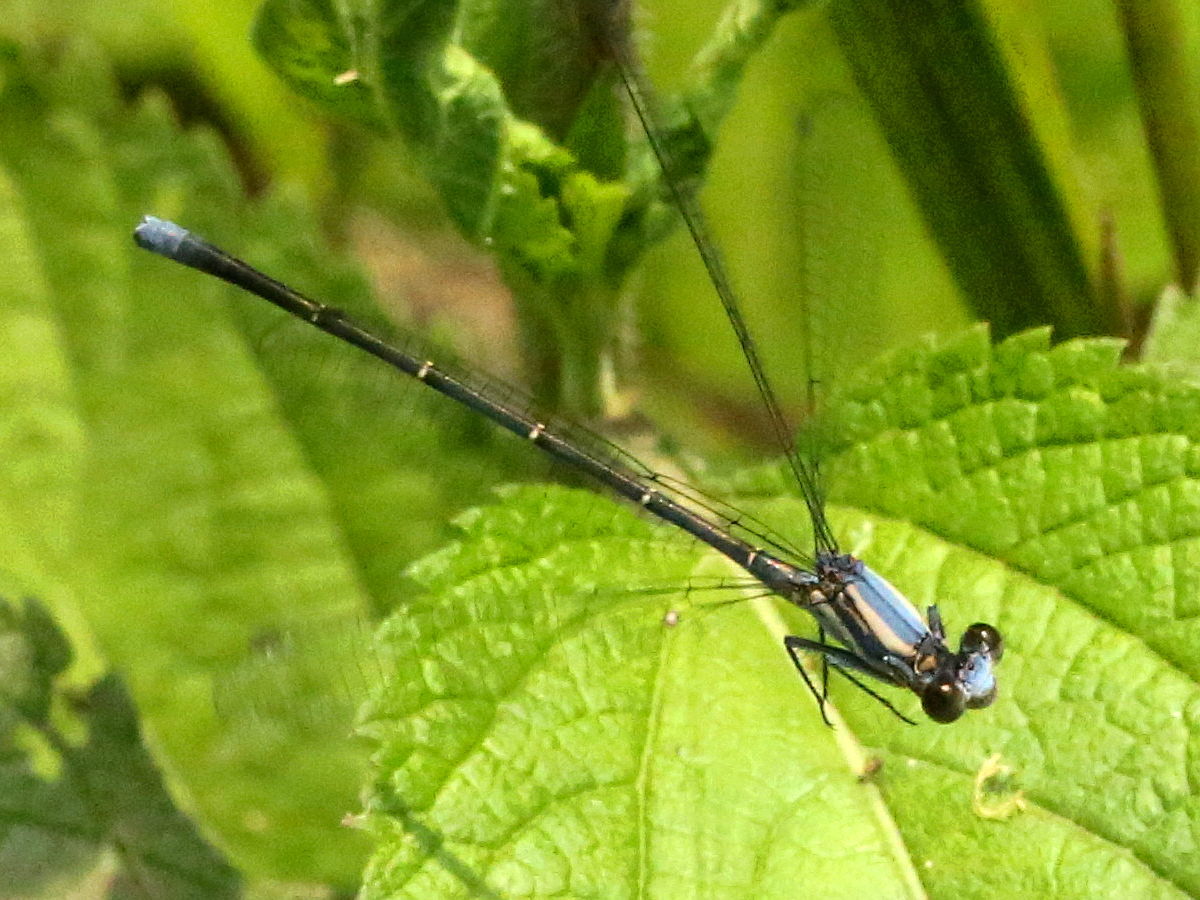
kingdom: Animalia
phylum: Arthropoda
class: Insecta
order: Odonata
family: Coenagrionidae
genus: Argia
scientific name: Argia moesta
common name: Powdered dancer
